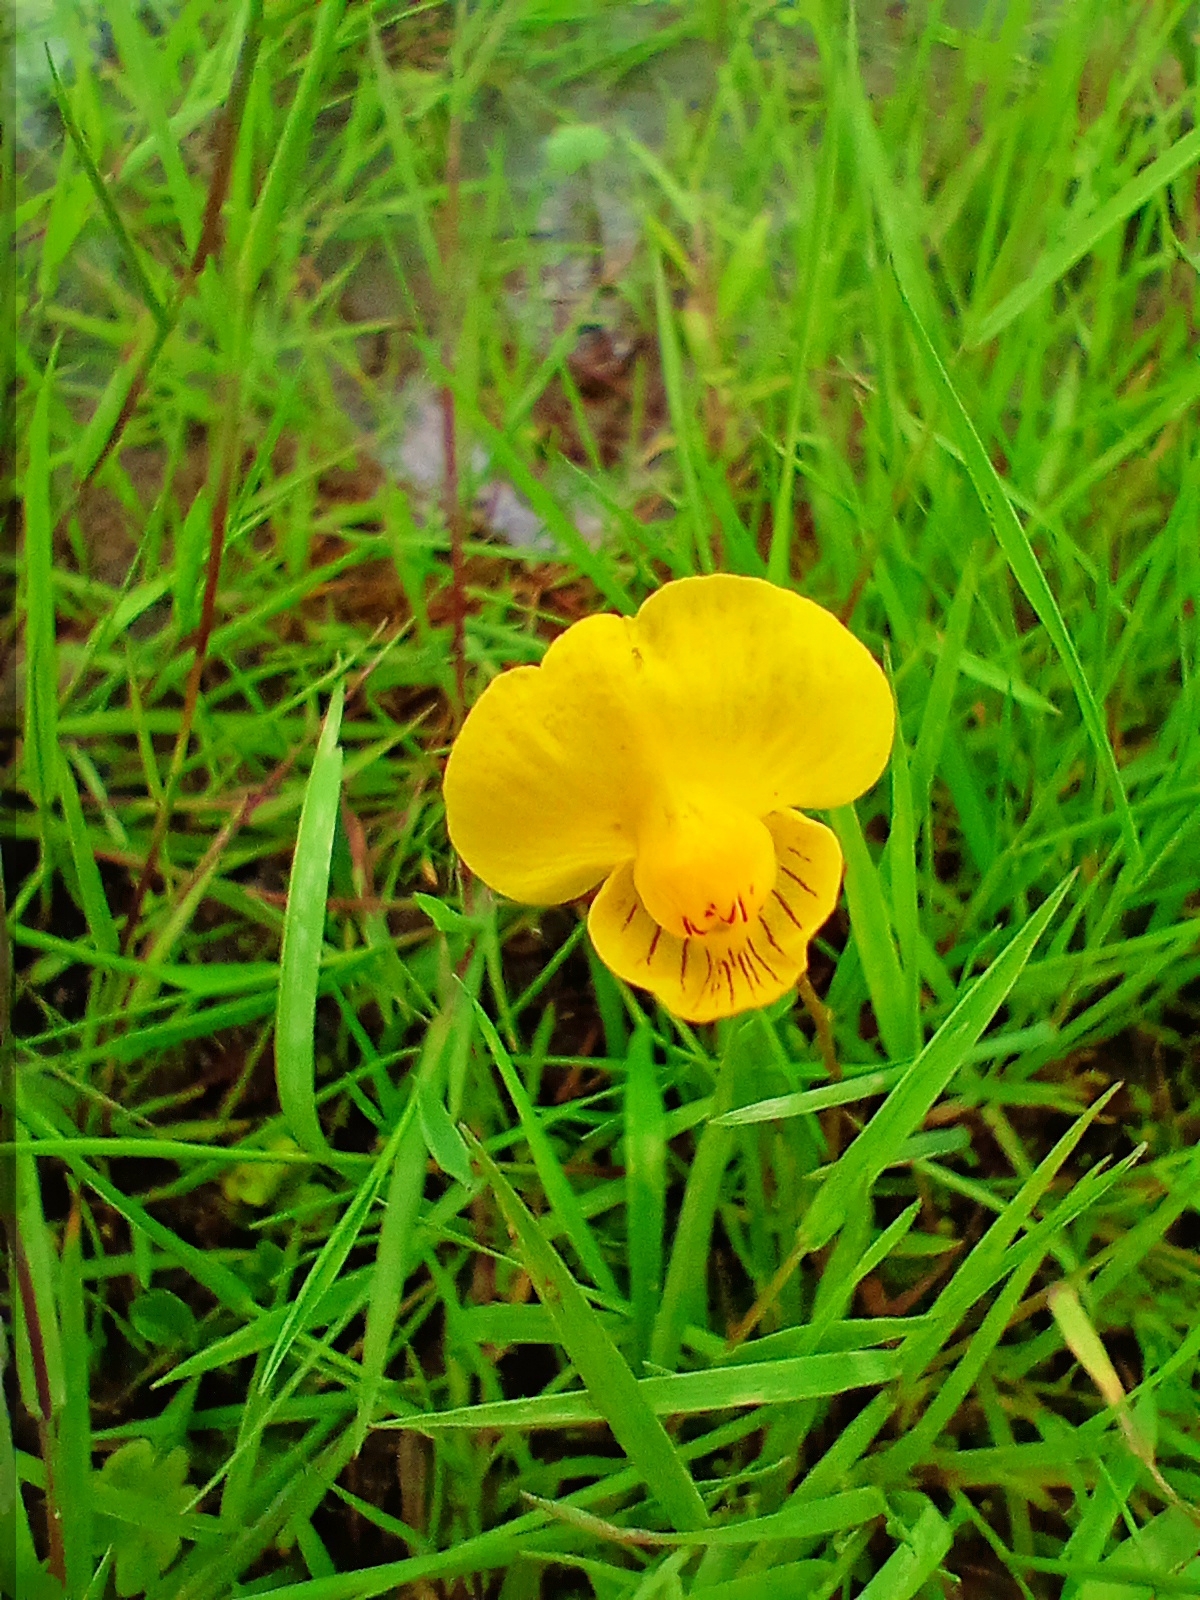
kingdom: Plantae
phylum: Tracheophyta
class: Magnoliopsida
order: Lamiales
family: Lentibulariaceae
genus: Utricularia
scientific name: Utricularia intermedia
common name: Intermediate bladderwort
